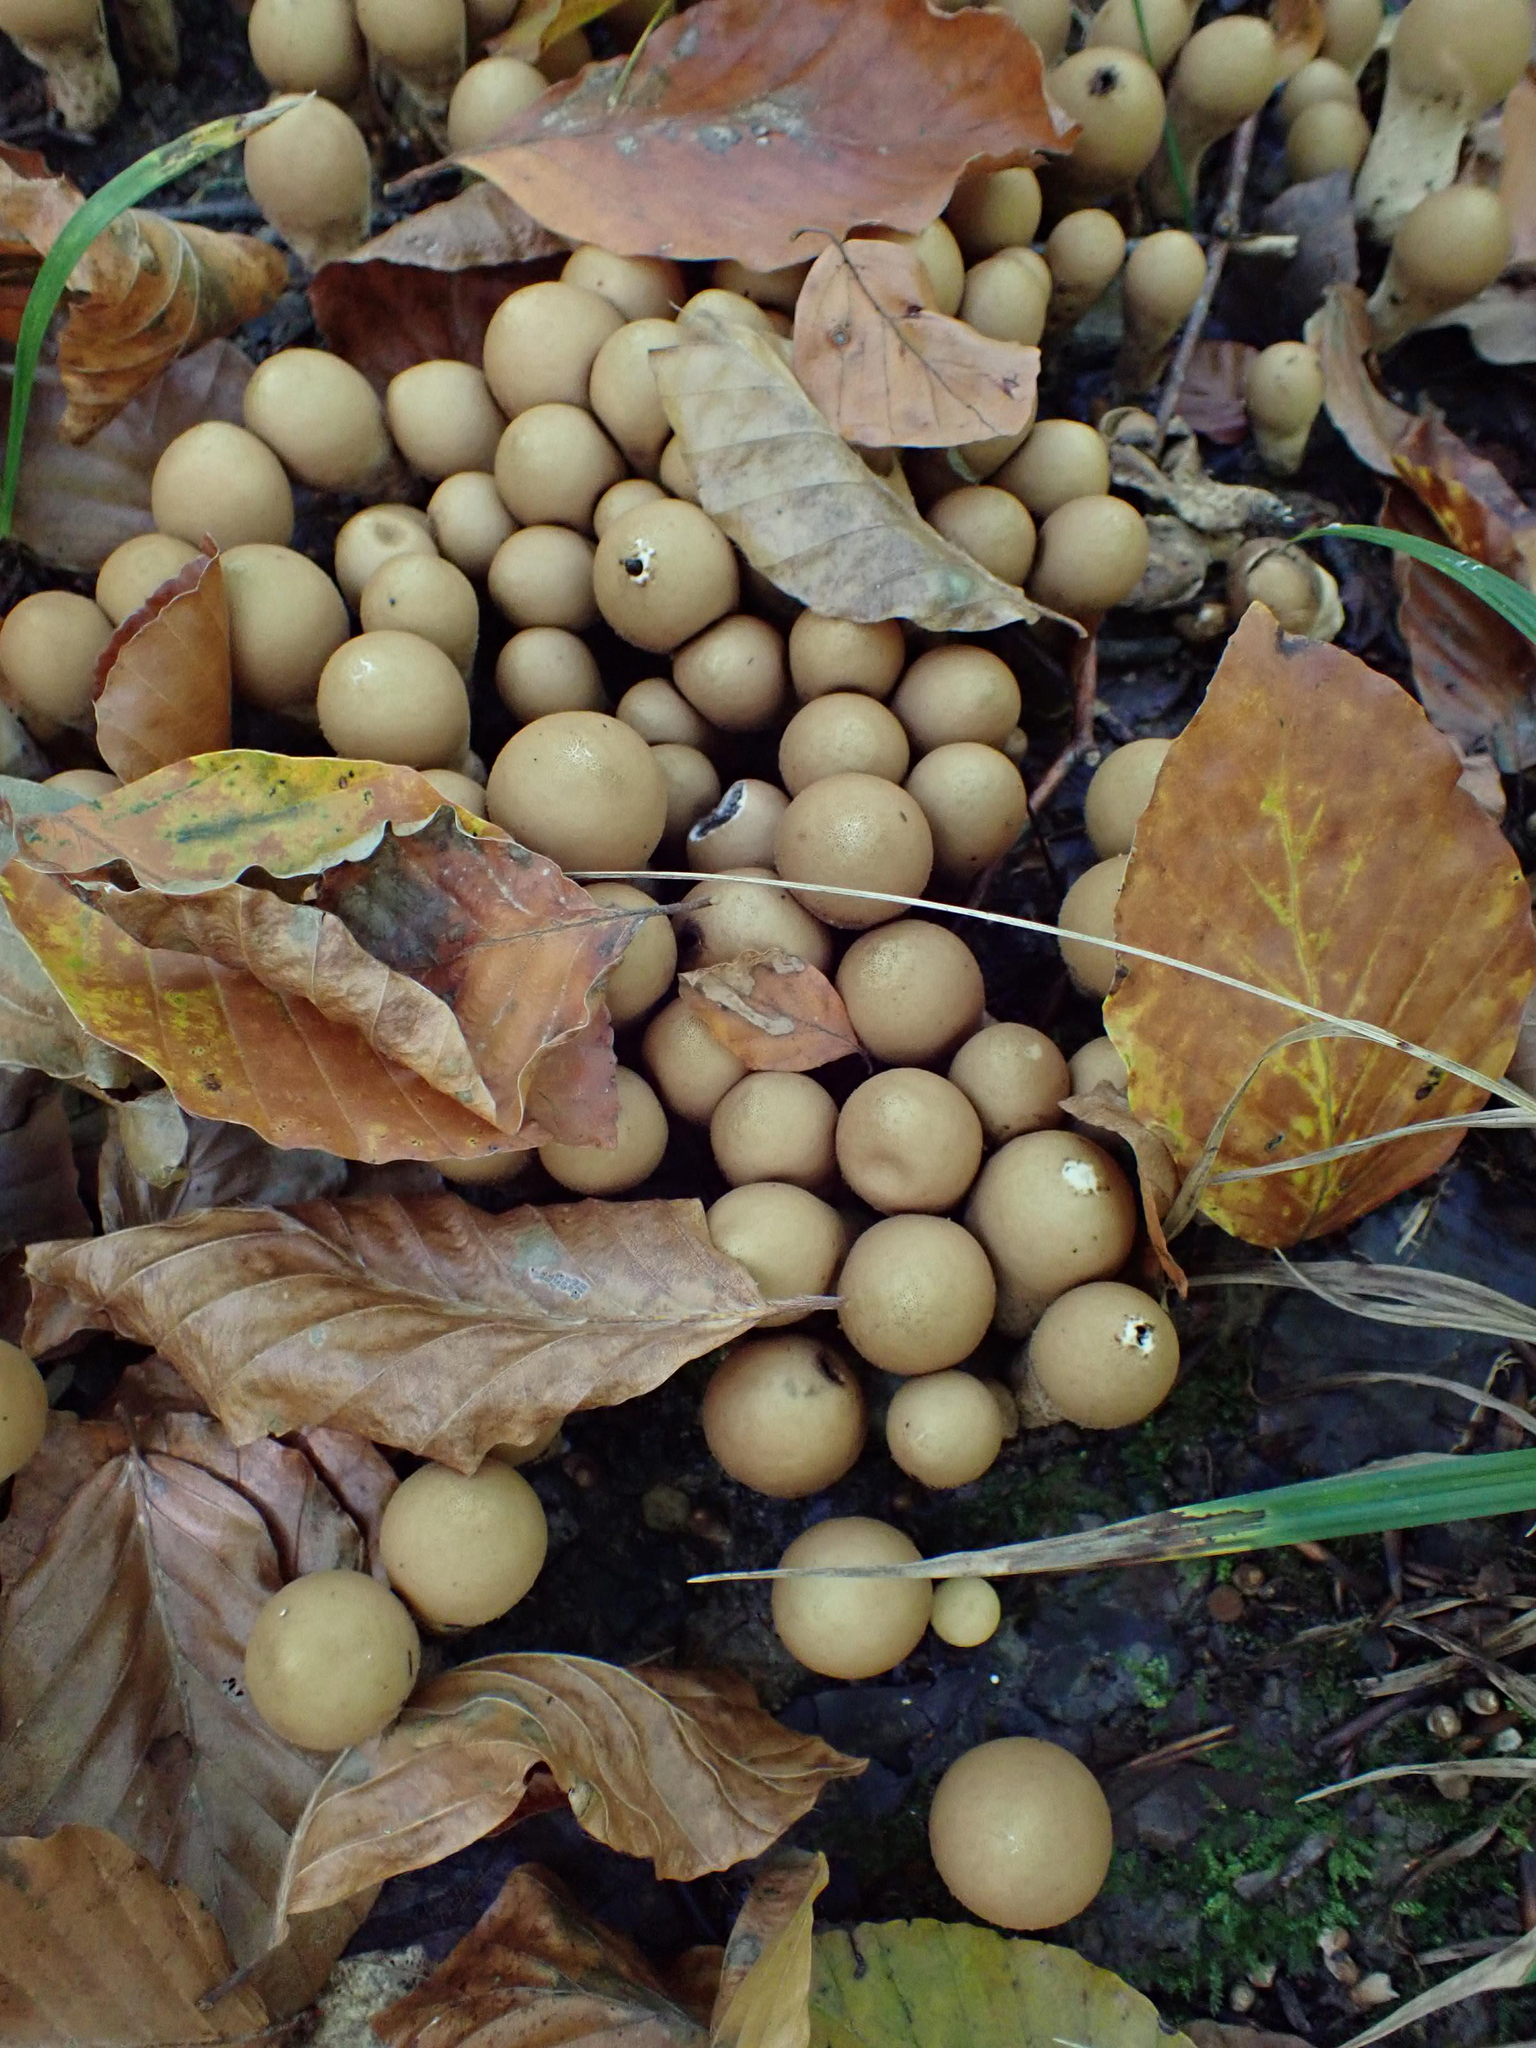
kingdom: Fungi
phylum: Basidiomycota
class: Agaricomycetes
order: Agaricales
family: Lycoperdaceae
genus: Apioperdon
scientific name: Apioperdon pyriforme
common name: Pear-shaped puffball
